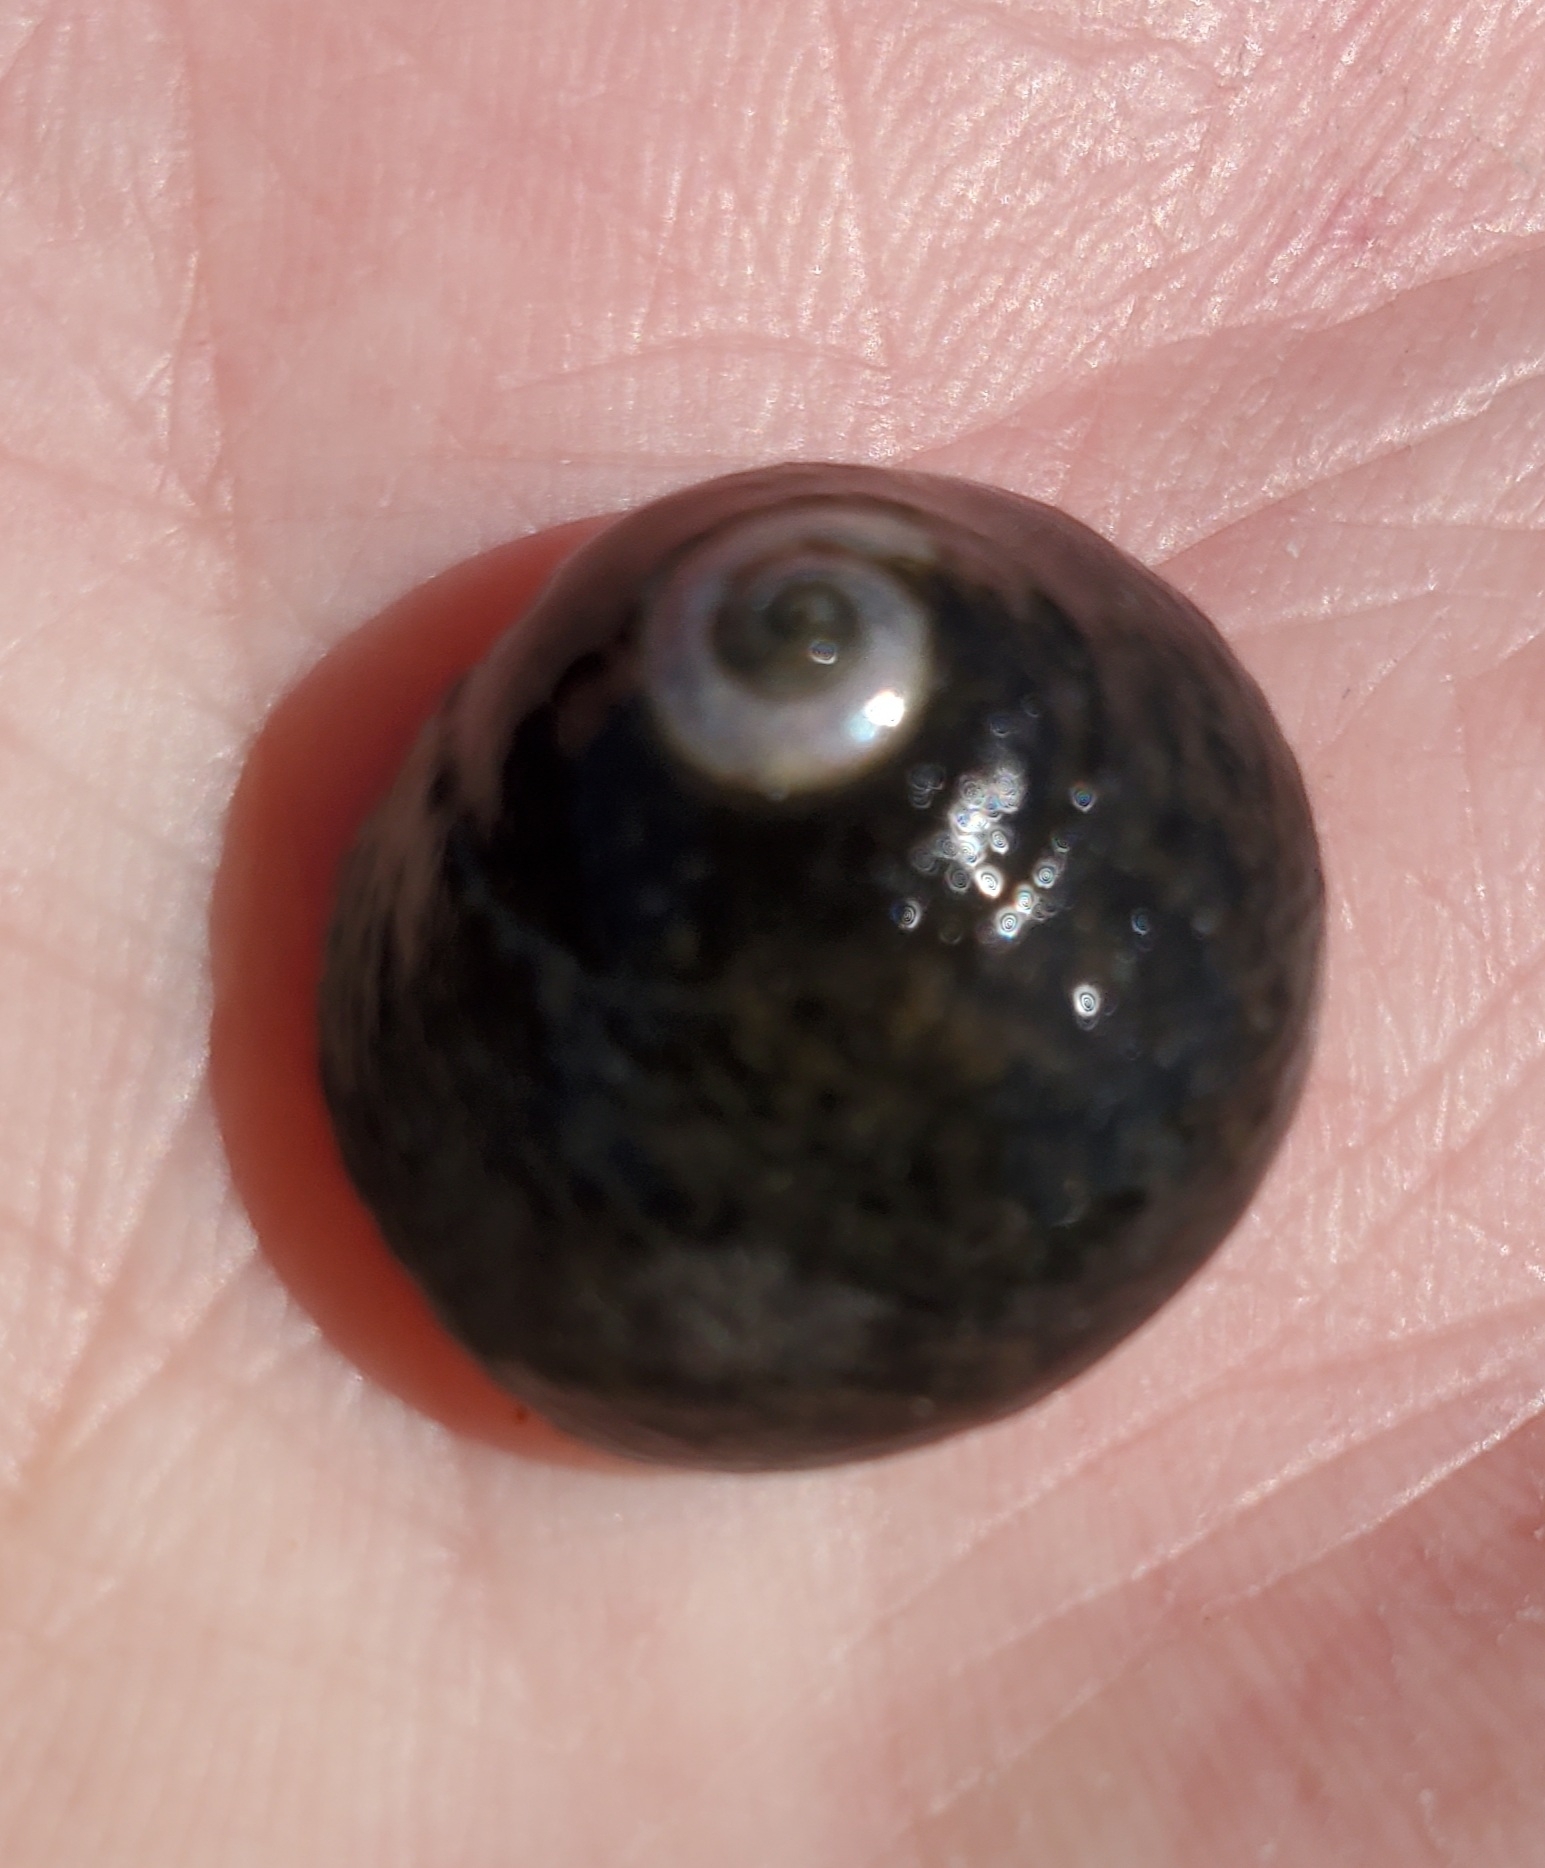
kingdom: Animalia
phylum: Mollusca
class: Gastropoda
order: Trochida
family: Tegulidae
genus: Tegula
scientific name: Tegula funebralis
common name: Black tegula
